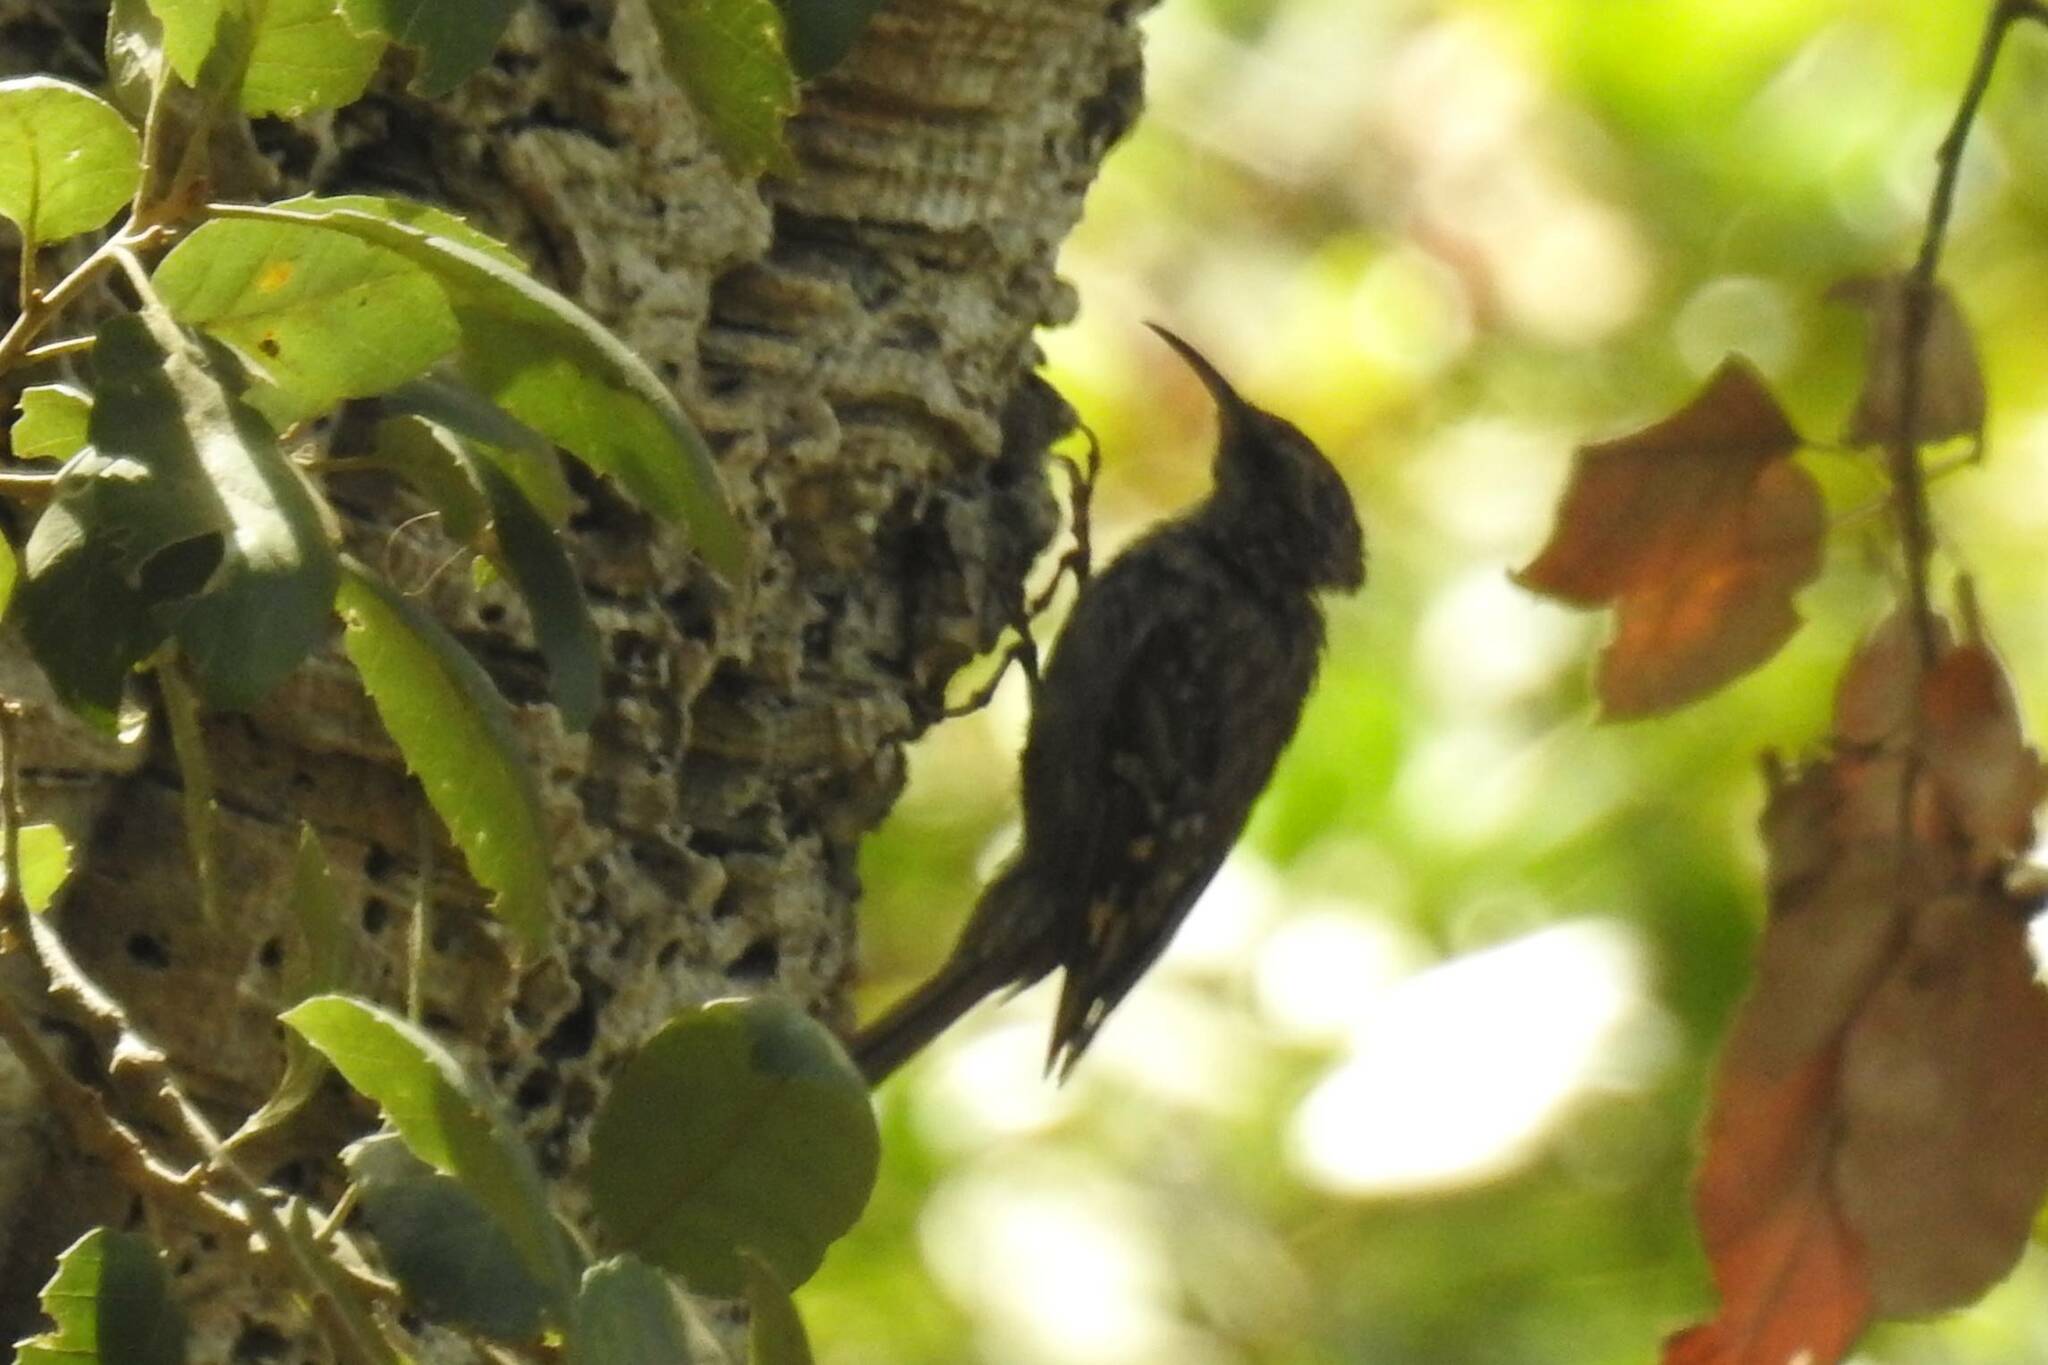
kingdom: Animalia
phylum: Chordata
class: Aves
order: Passeriformes
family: Certhiidae
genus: Certhia
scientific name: Certhia brachydactyla
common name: Short-toed treecreeper
